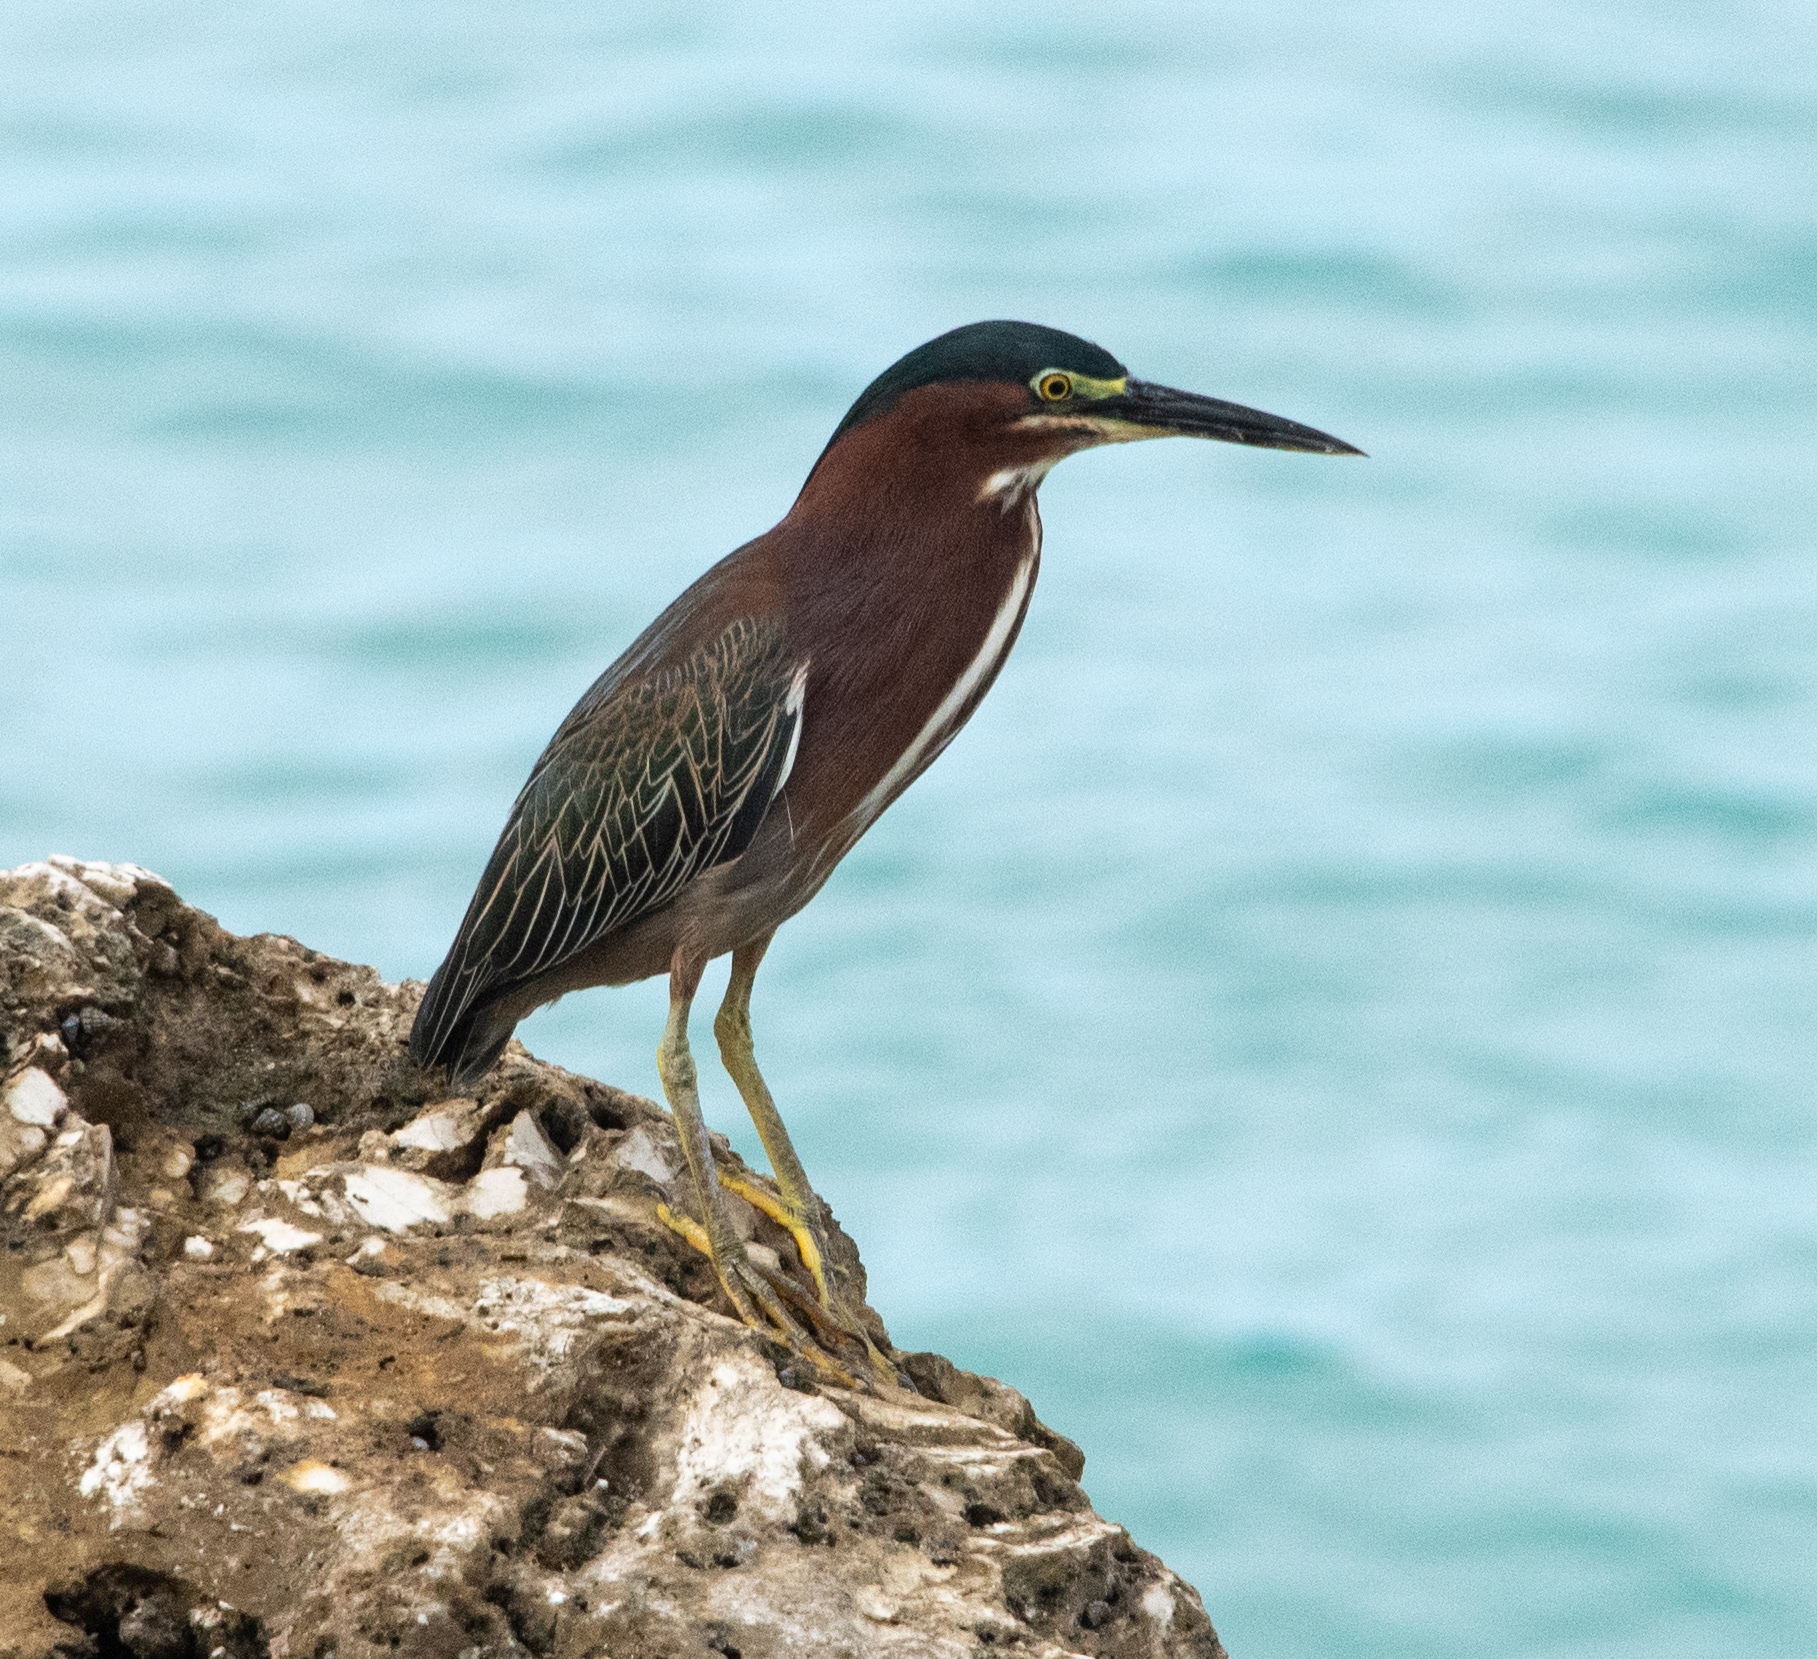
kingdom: Animalia
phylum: Chordata
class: Aves
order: Pelecaniformes
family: Ardeidae
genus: Butorides
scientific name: Butorides virescens
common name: Green heron
